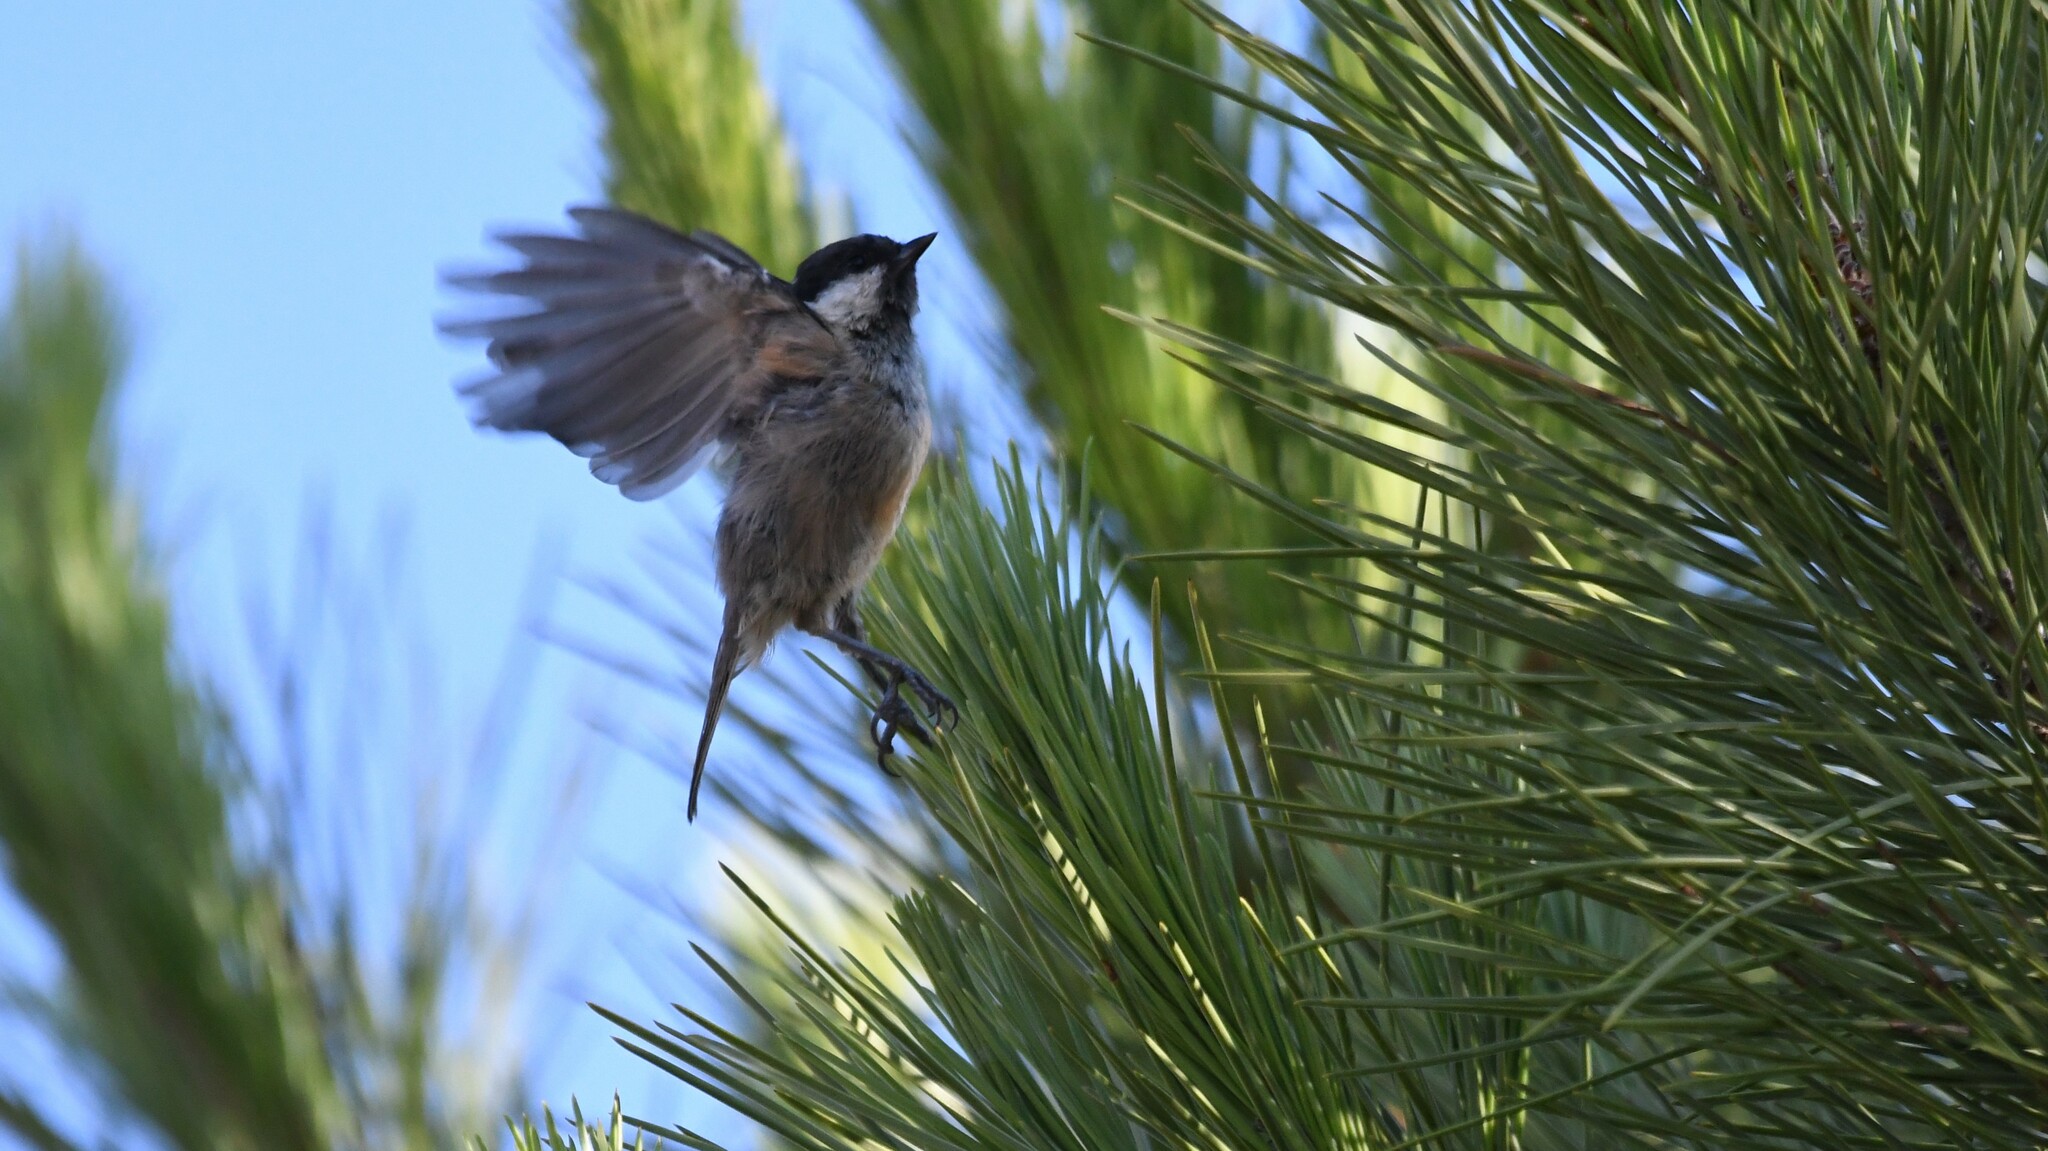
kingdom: Animalia
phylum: Chordata
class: Aves
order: Passeriformes
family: Paridae
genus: Periparus
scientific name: Periparus ater
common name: Coal tit
